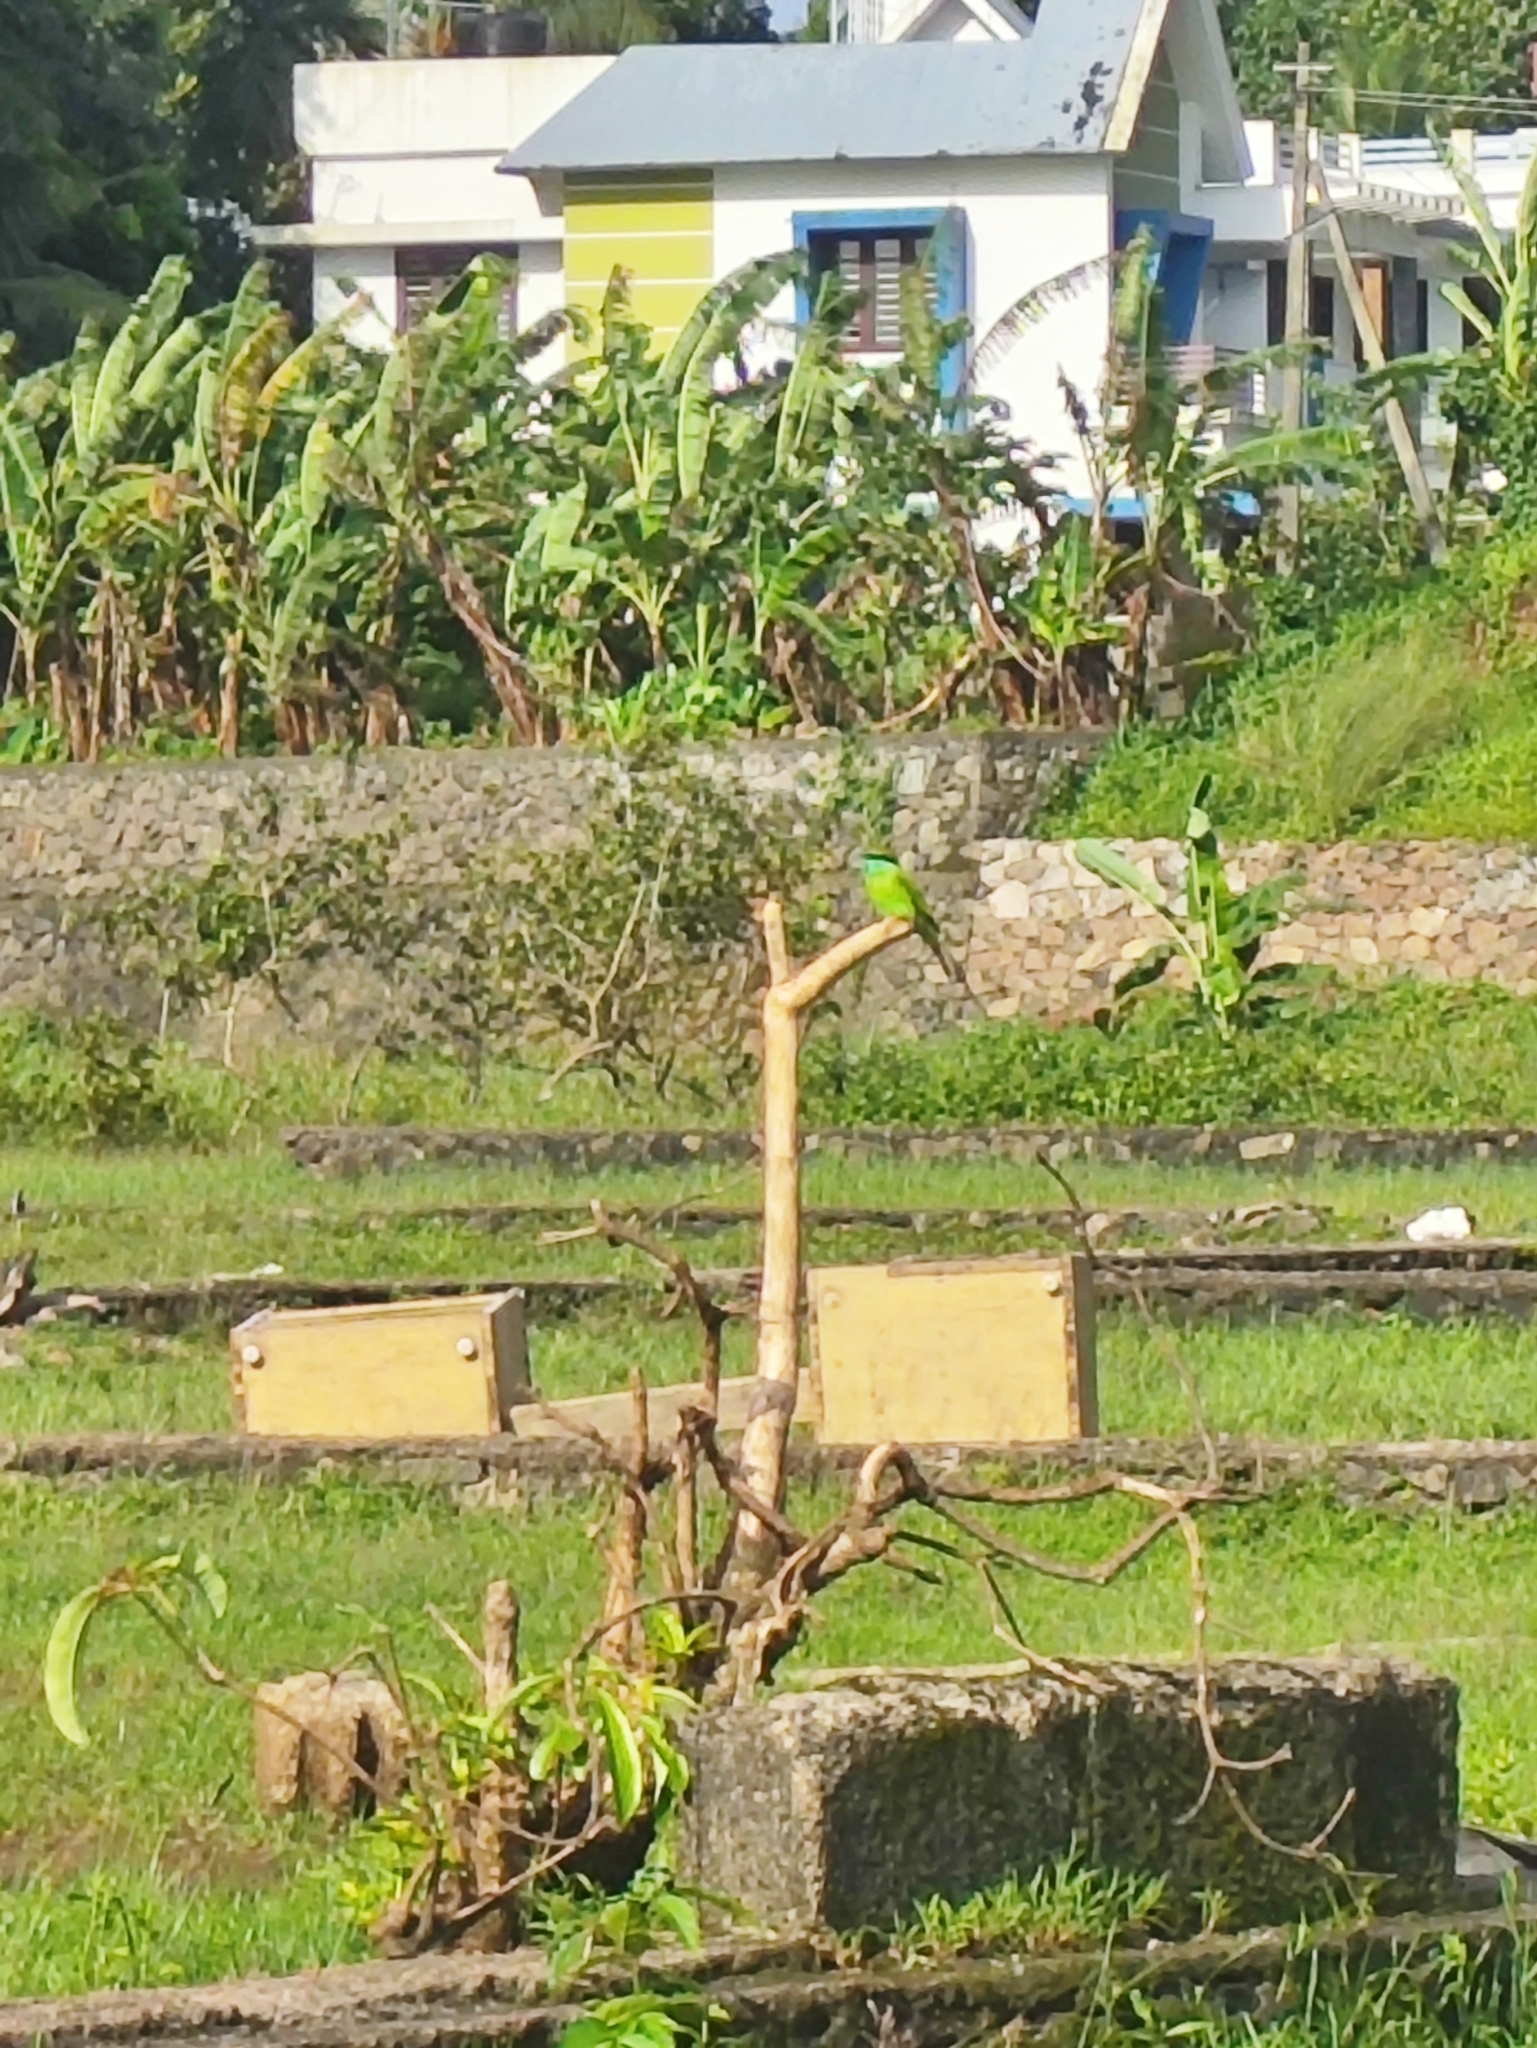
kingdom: Animalia
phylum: Chordata
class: Aves
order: Coraciiformes
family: Meropidae
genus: Merops
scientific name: Merops orientalis
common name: Green bee-eater
